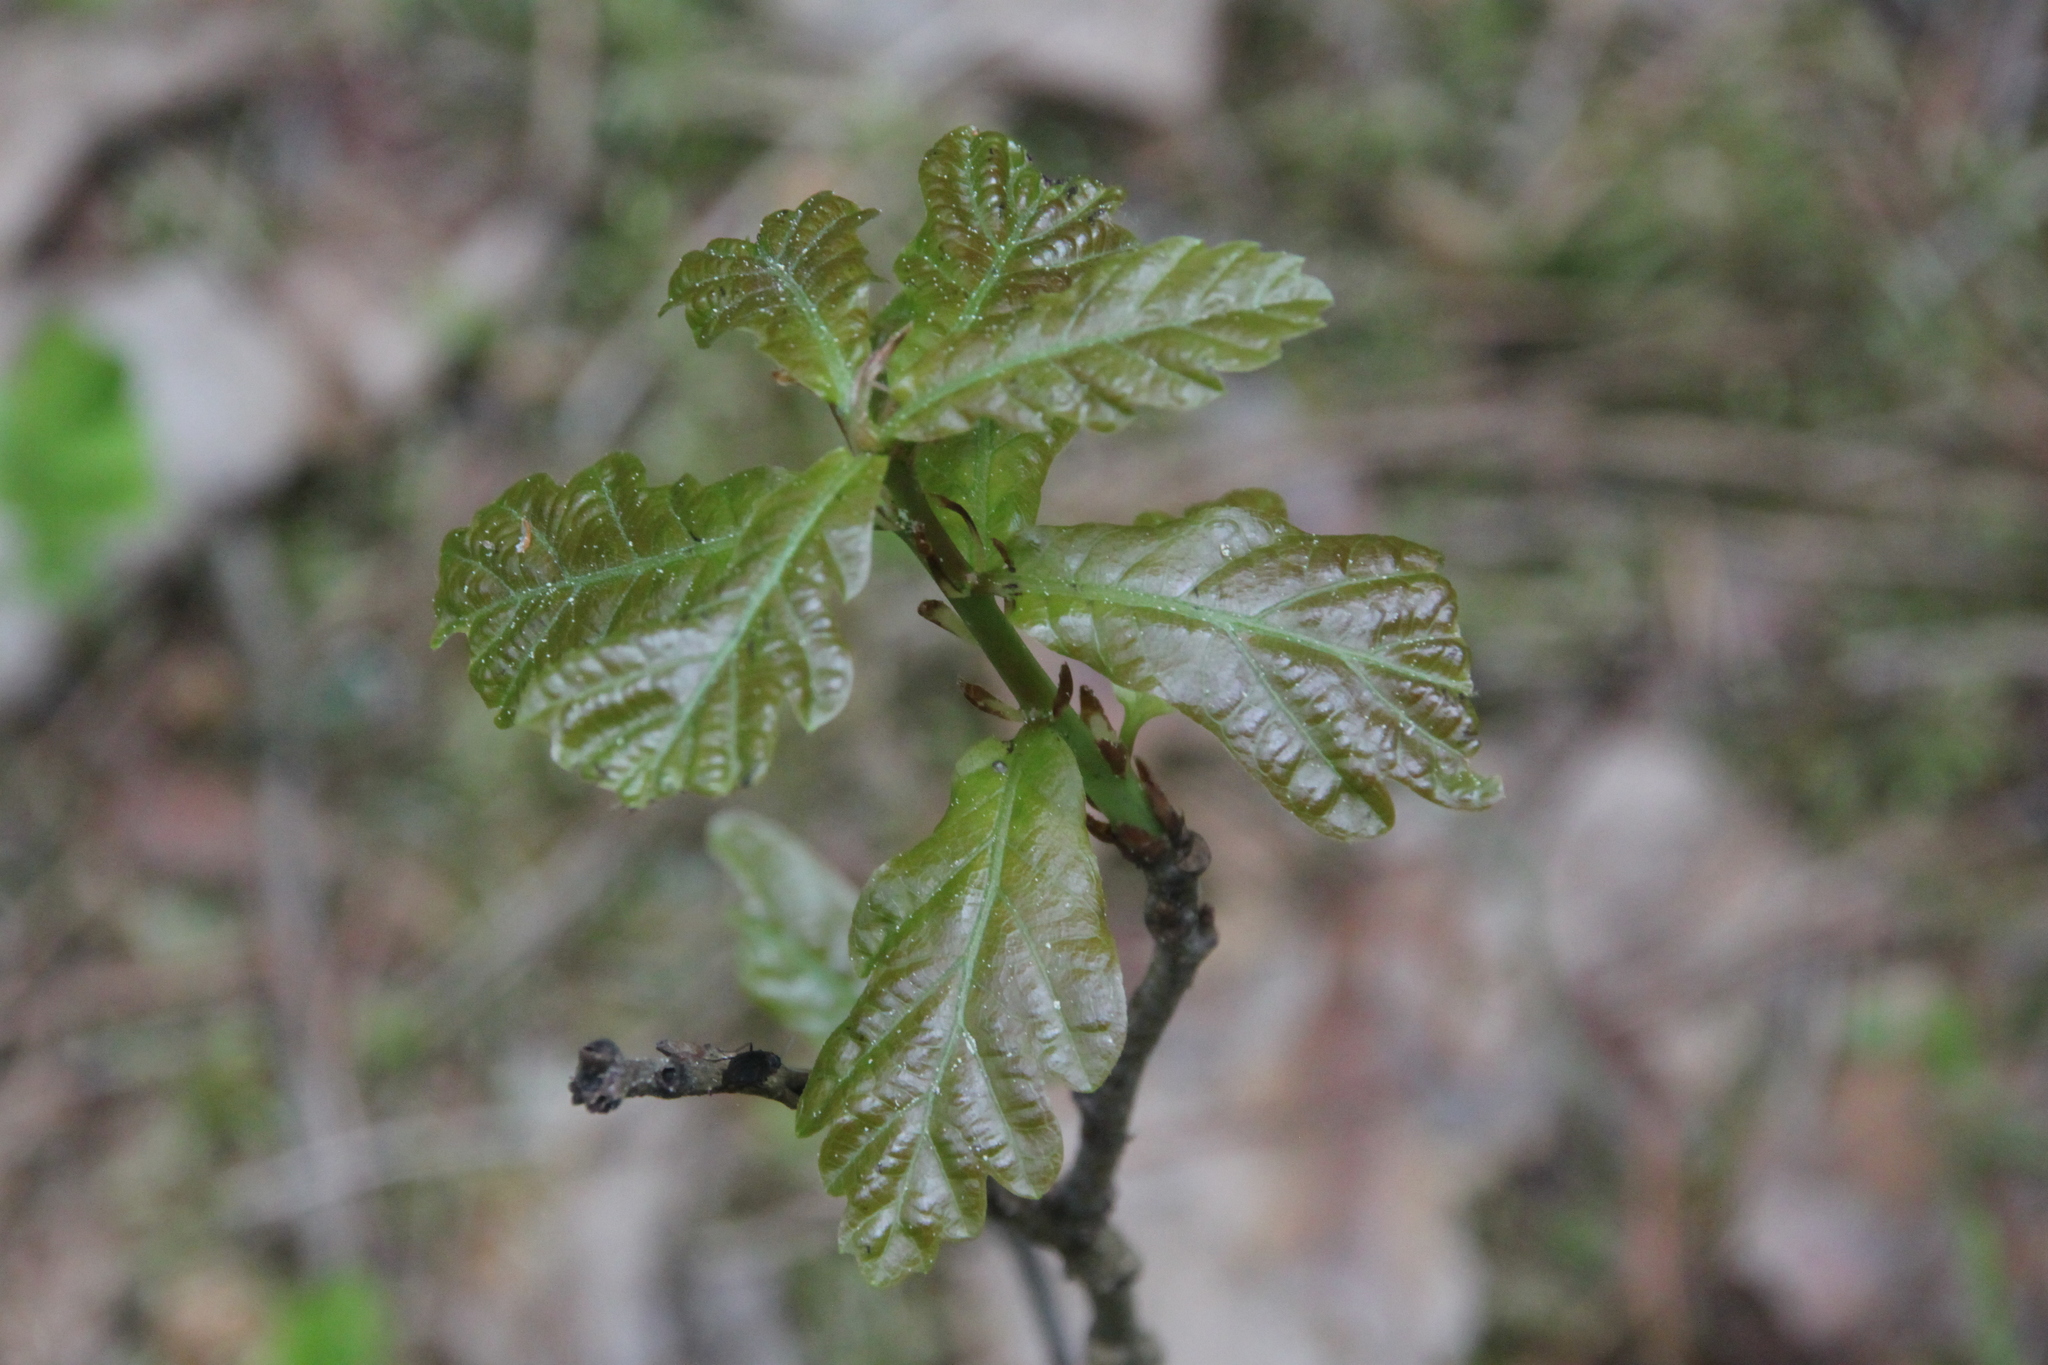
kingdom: Plantae
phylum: Tracheophyta
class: Magnoliopsida
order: Fagales
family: Fagaceae
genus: Quercus
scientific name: Quercus robur
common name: Pedunculate oak
